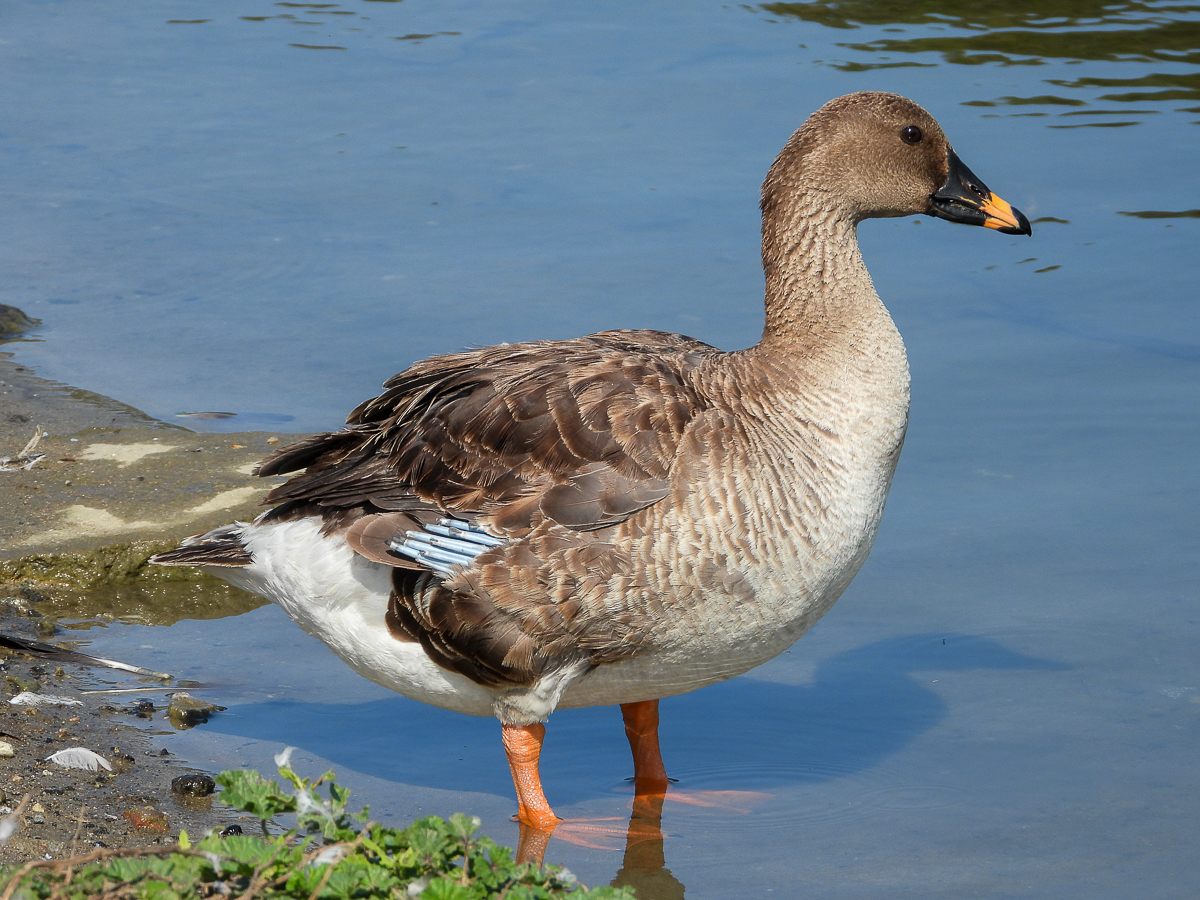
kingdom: Animalia
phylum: Chordata
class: Aves
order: Anseriformes
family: Anatidae
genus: Anser
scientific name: Anser serrirostris
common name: Tundra bean goose
